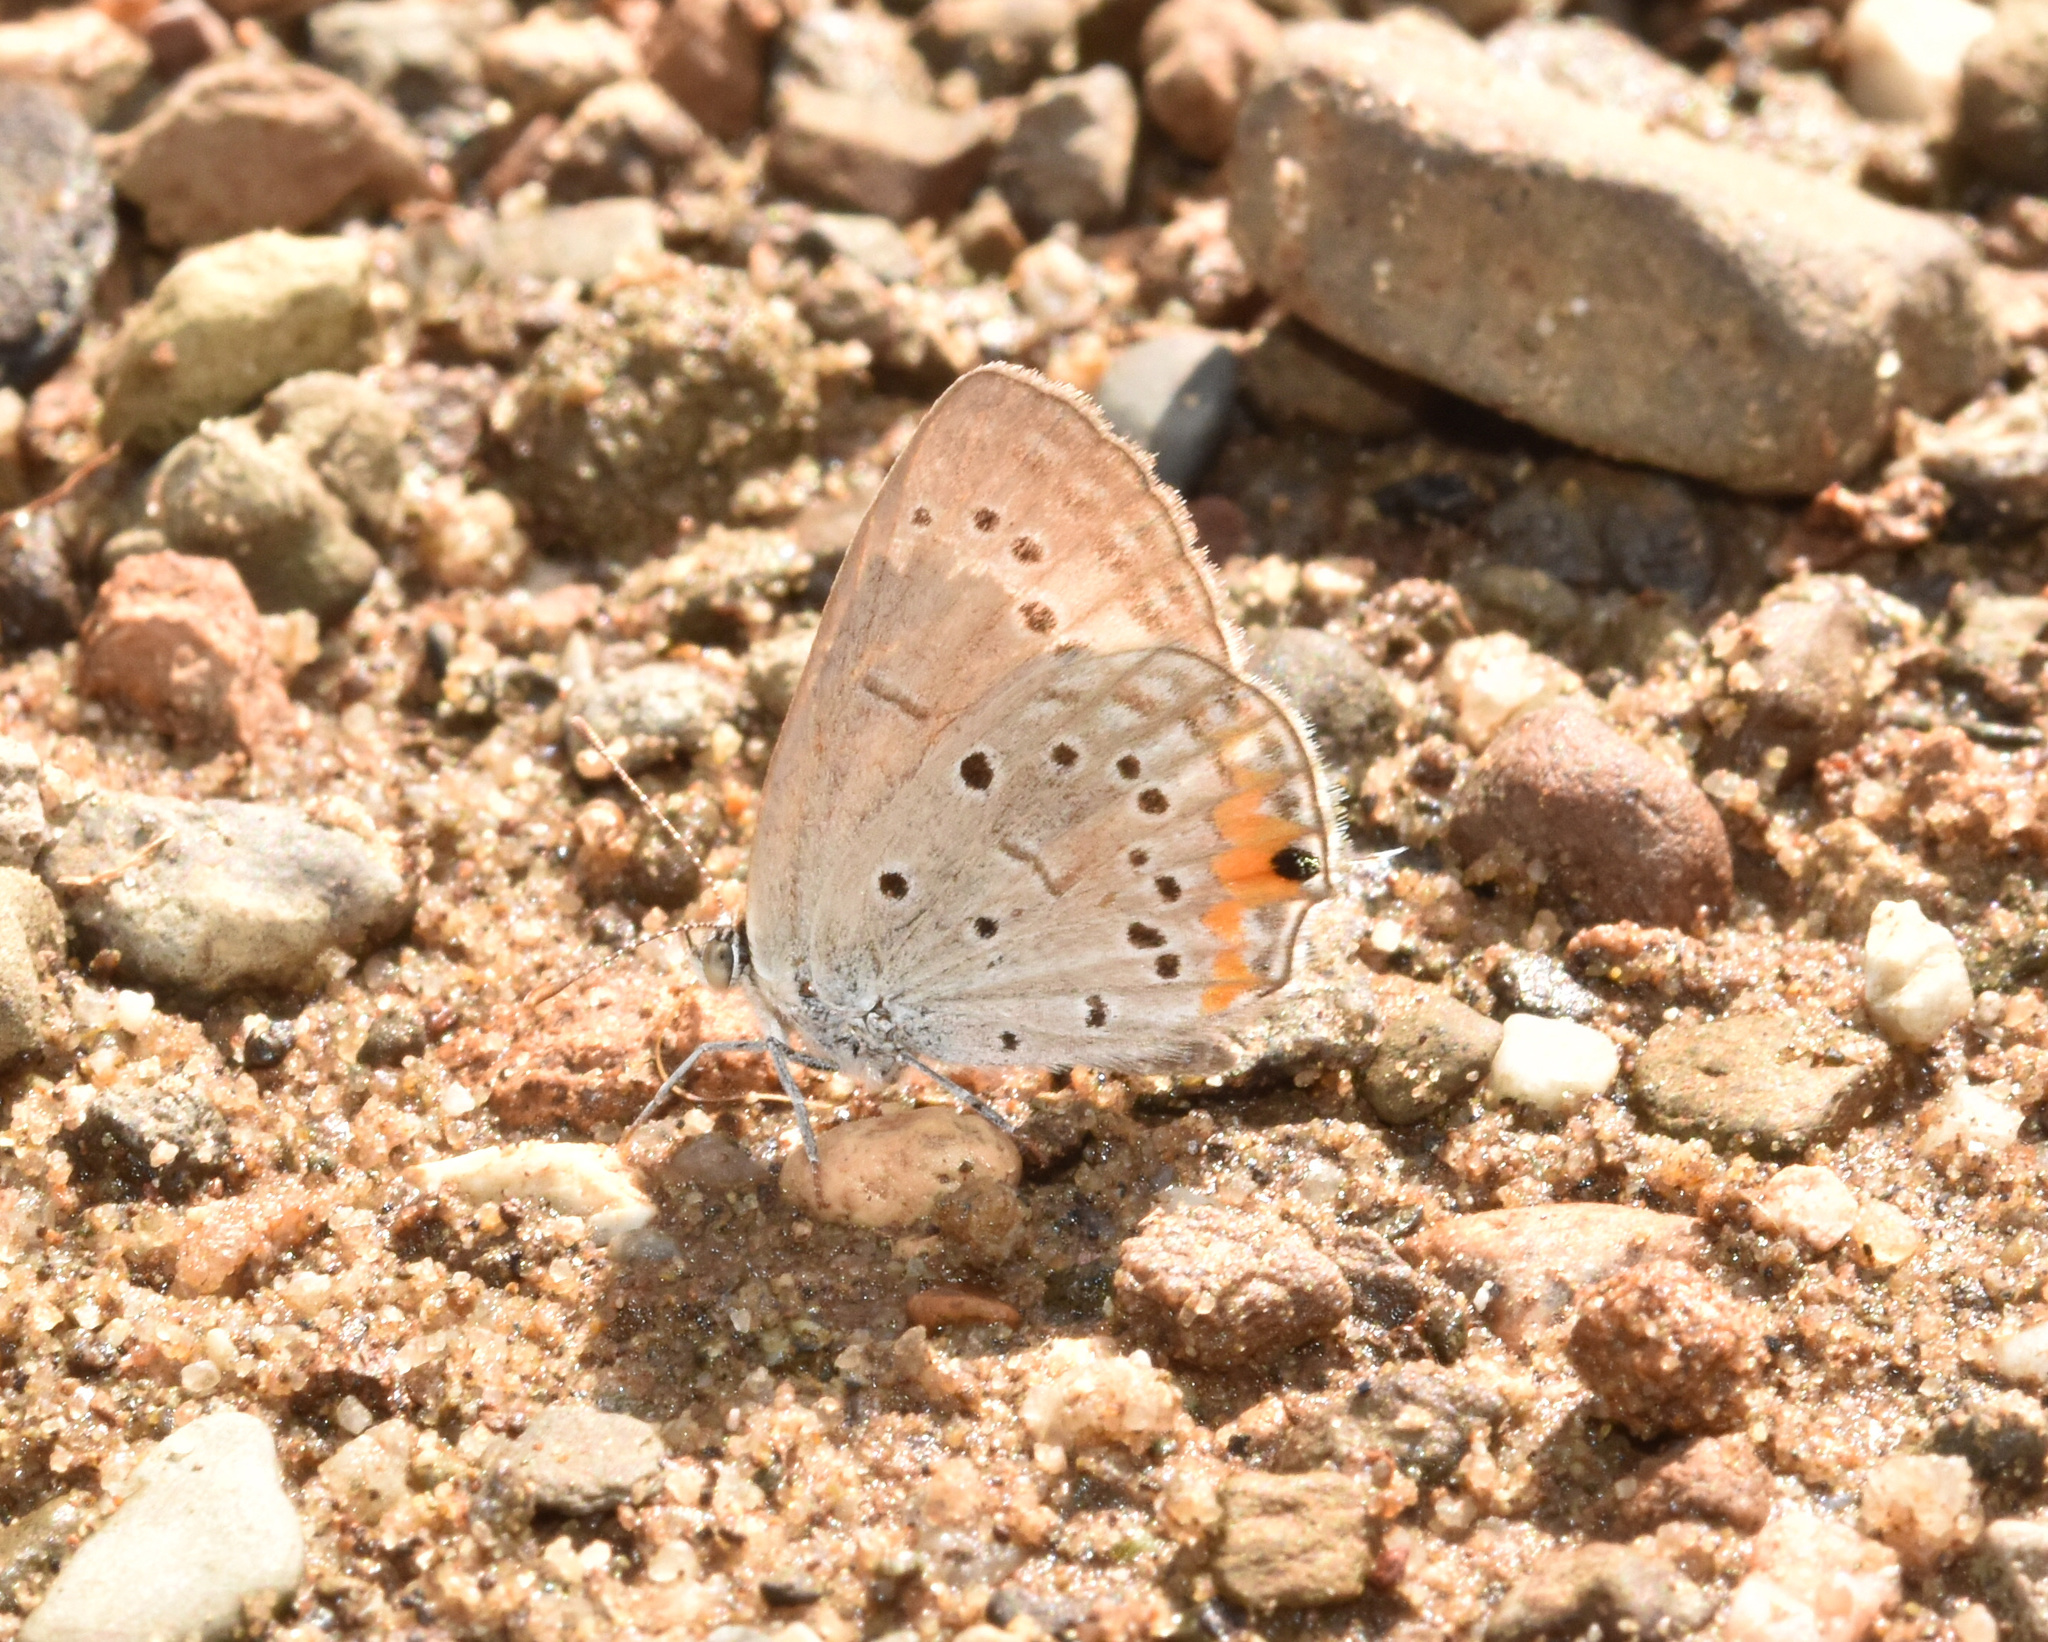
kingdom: Animalia
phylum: Arthropoda
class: Insecta
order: Lepidoptera
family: Lycaenidae
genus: Cupidopsis
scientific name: Cupidopsis jobates
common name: Tailed meadow blue
